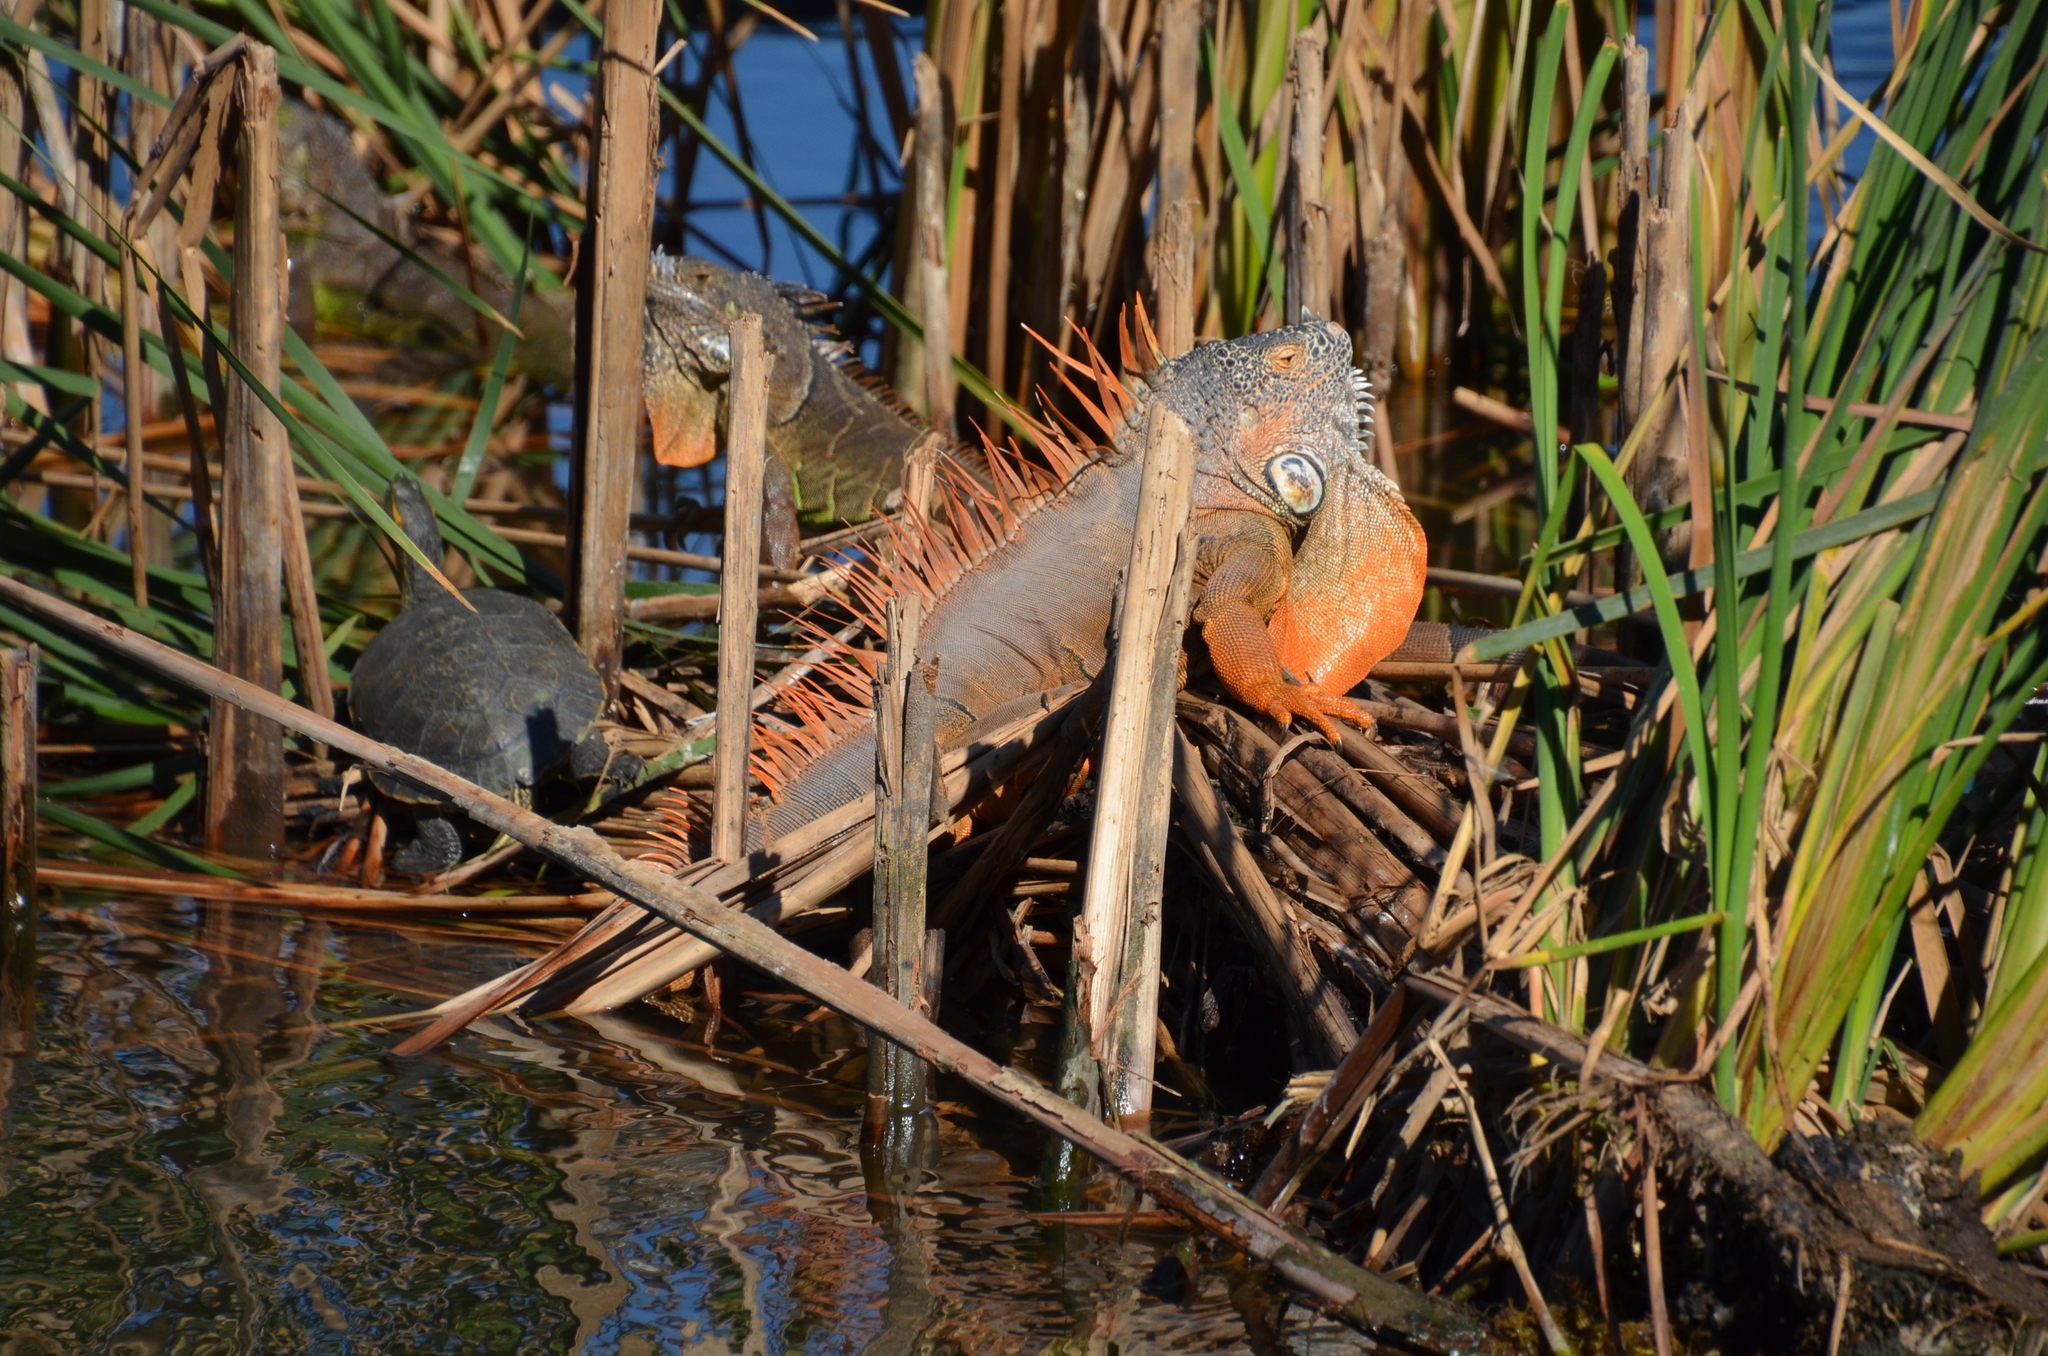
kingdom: Animalia
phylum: Chordata
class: Squamata
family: Iguanidae
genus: Iguana
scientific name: Iguana iguana
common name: Green iguana
